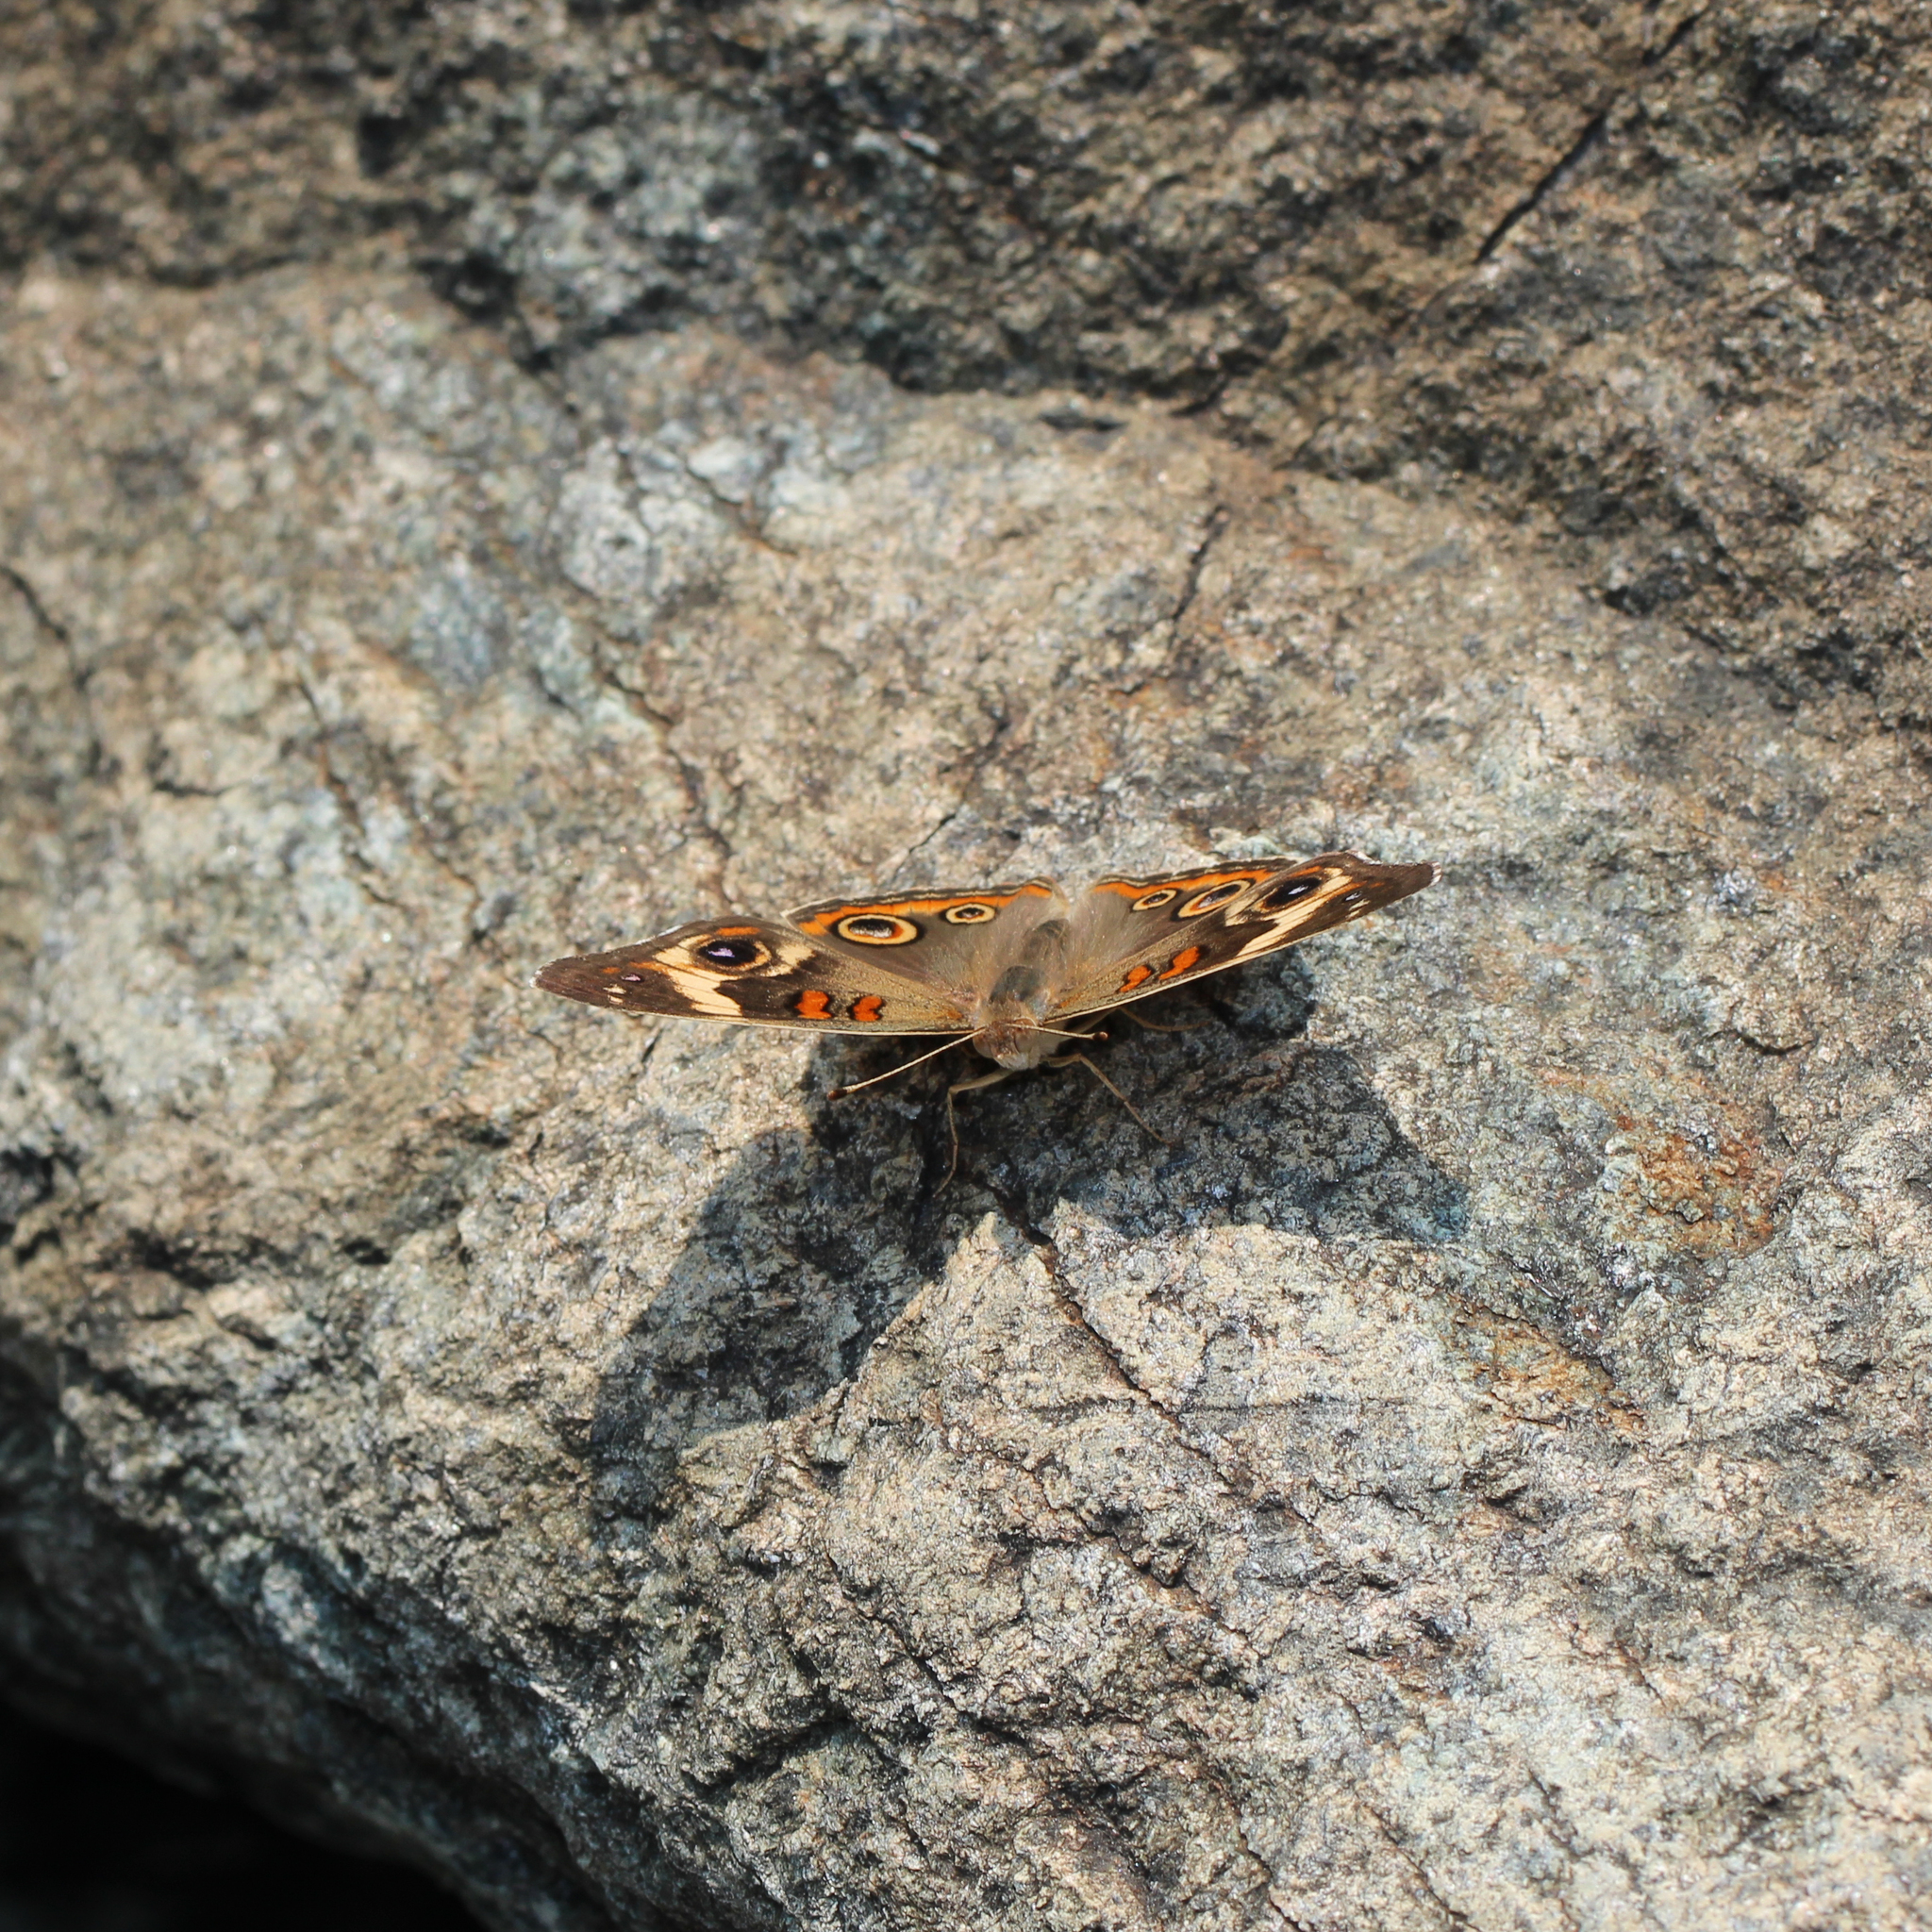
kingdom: Animalia
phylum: Arthropoda
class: Insecta
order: Lepidoptera
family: Nymphalidae
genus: Junonia
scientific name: Junonia coenia
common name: Common buckeye
